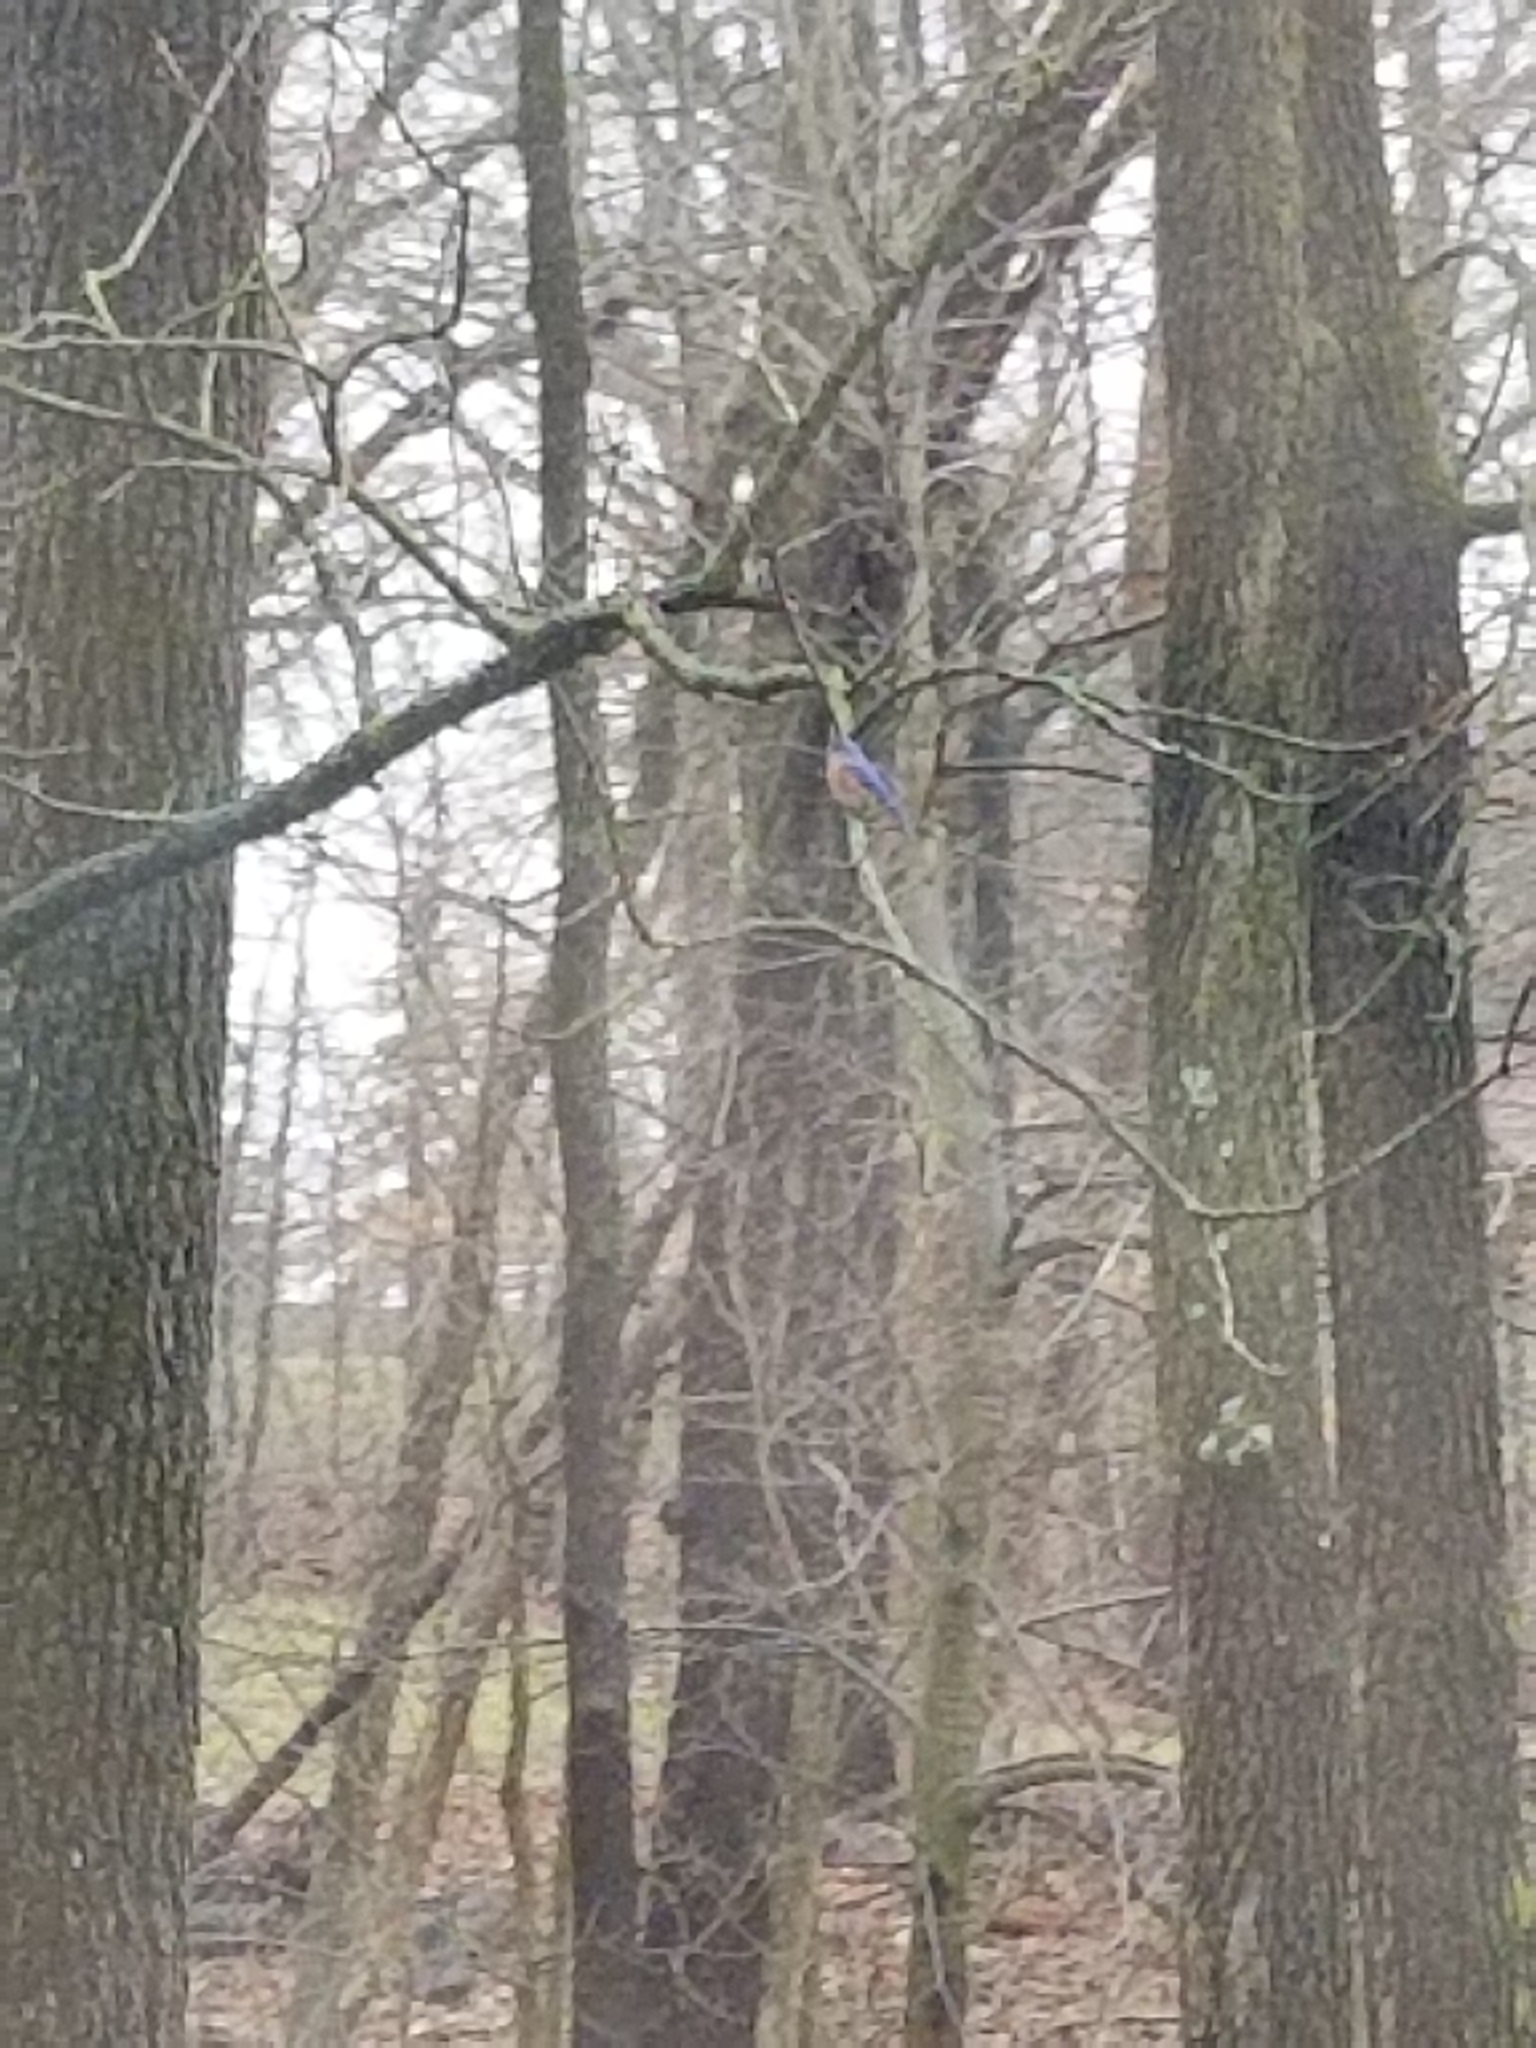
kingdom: Animalia
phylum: Chordata
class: Aves
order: Passeriformes
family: Turdidae
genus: Sialia
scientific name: Sialia sialis
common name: Eastern bluebird
